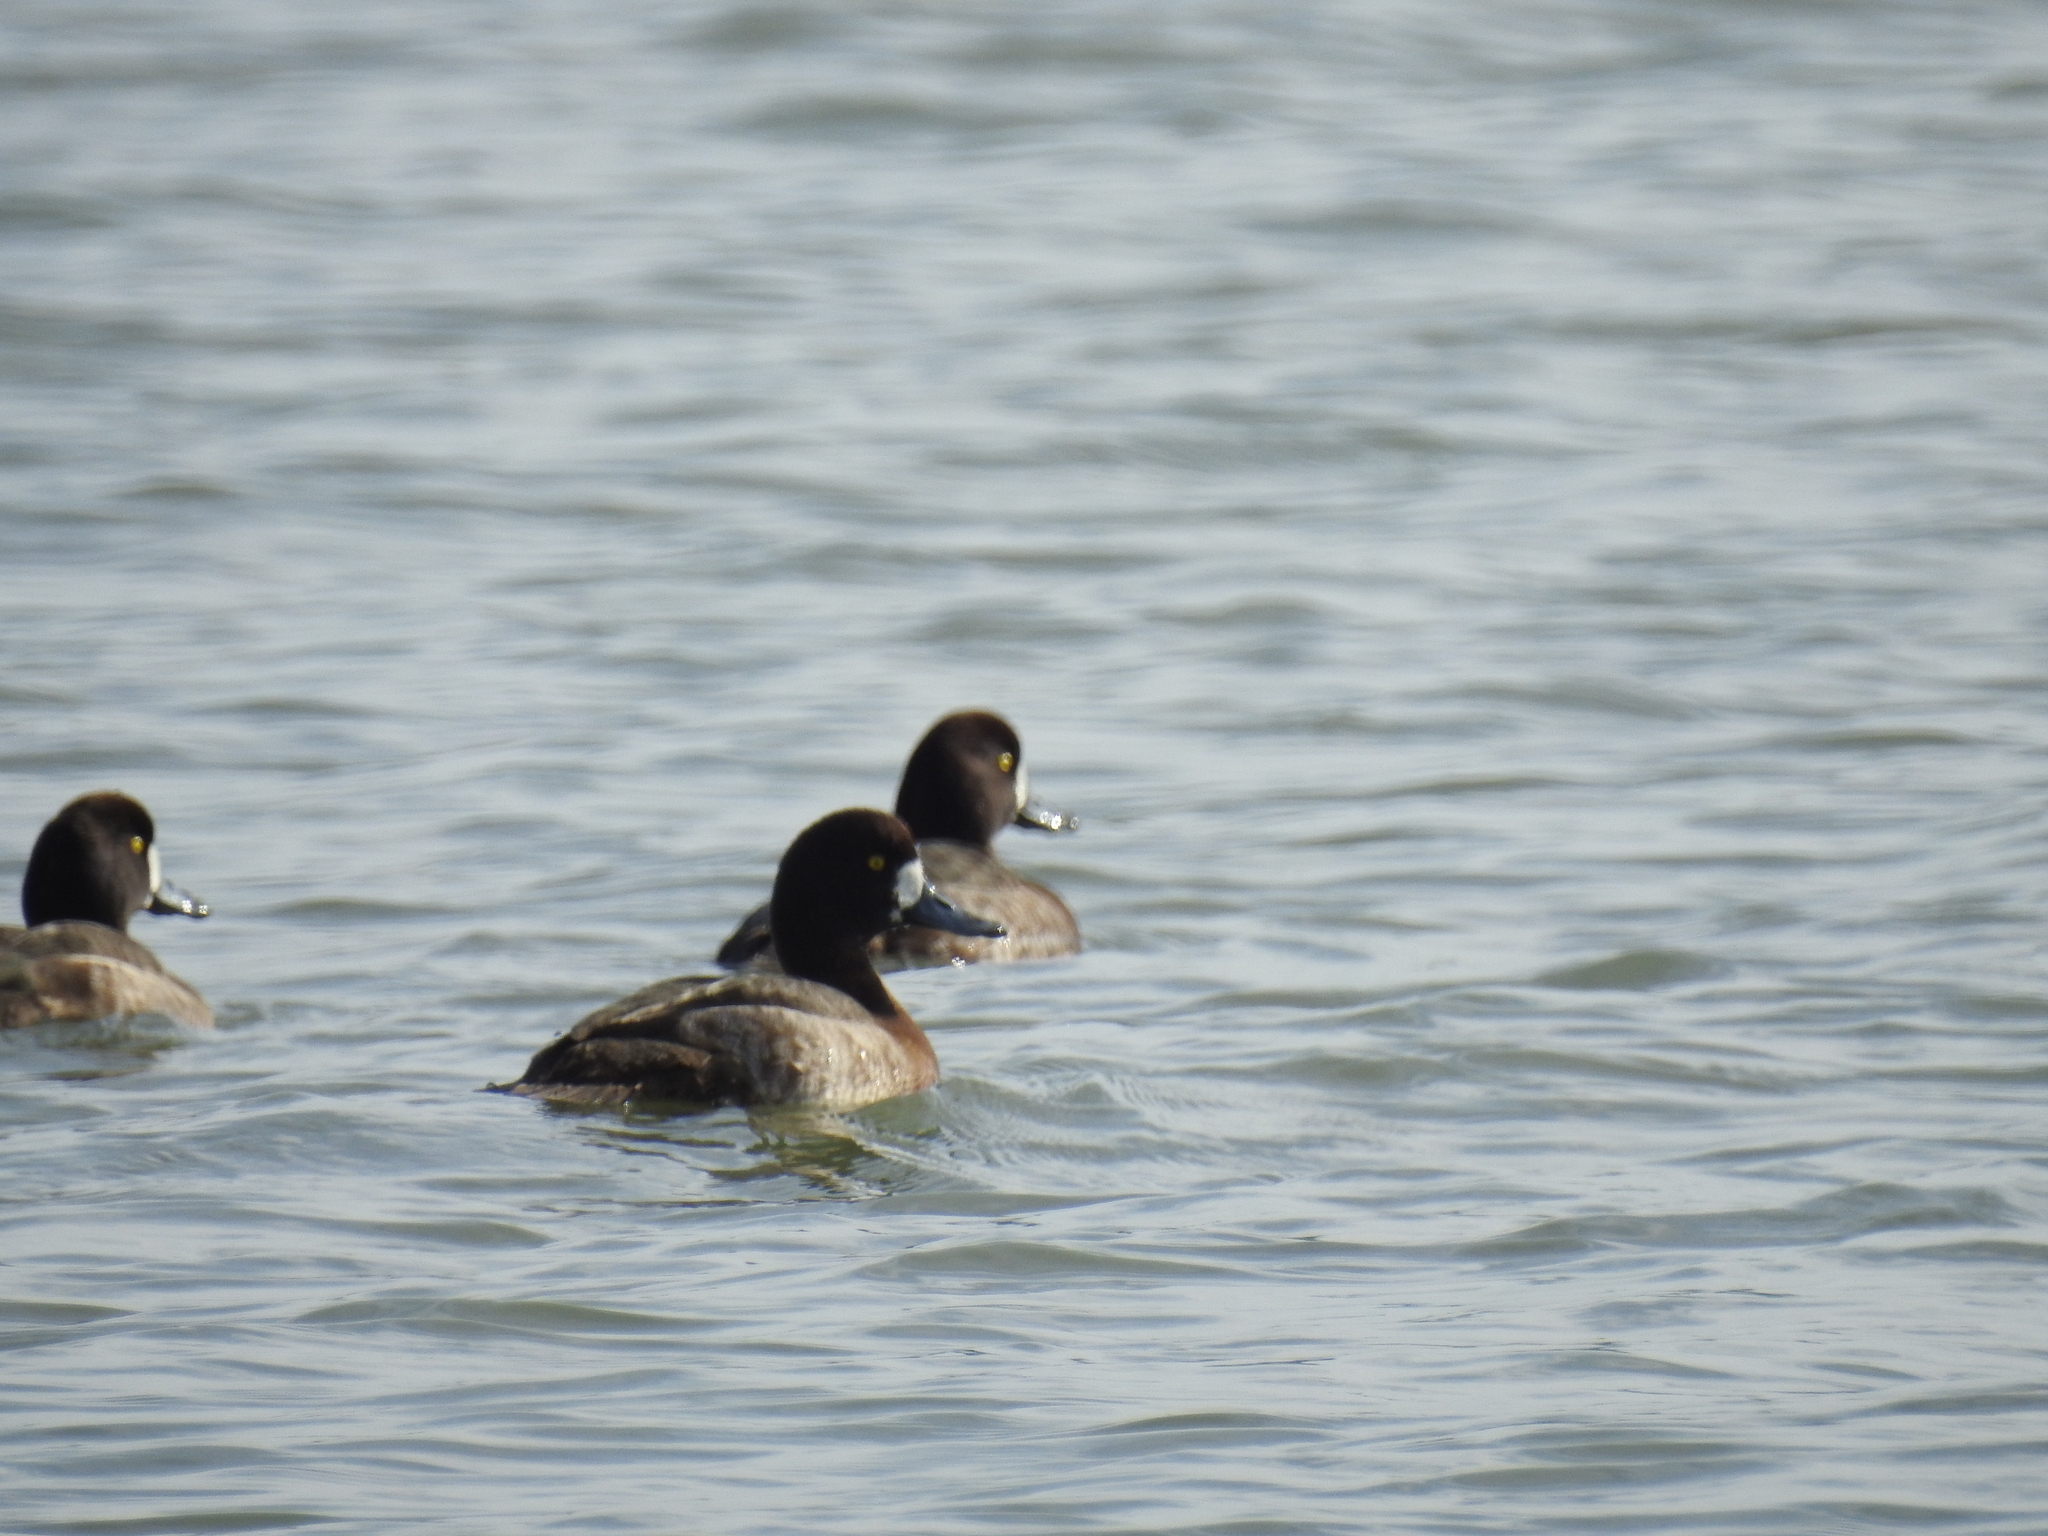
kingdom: Animalia
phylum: Chordata
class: Aves
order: Anseriformes
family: Anatidae
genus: Aythya
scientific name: Aythya marila
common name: Greater scaup
